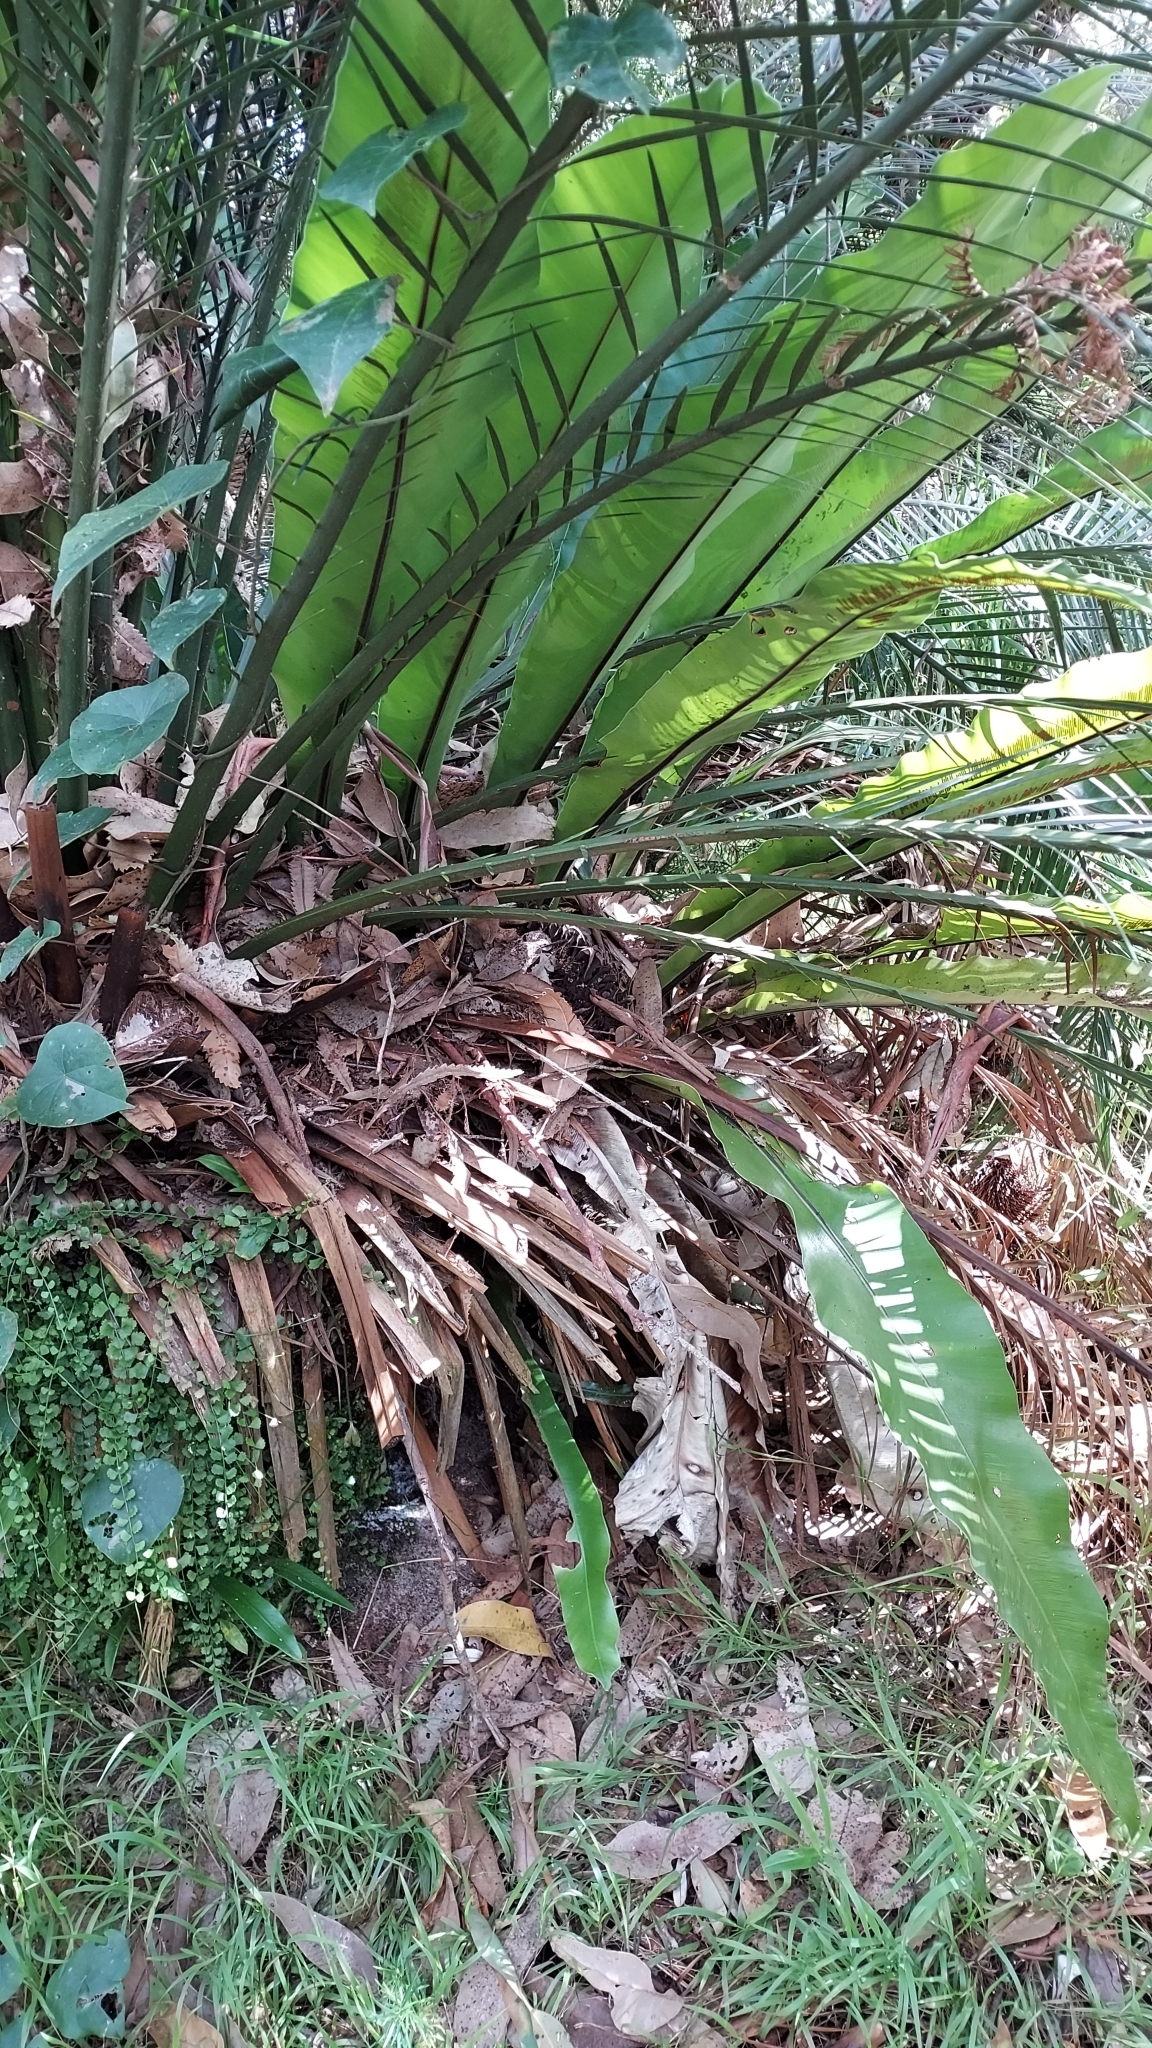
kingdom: Plantae
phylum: Tracheophyta
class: Polypodiopsida
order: Polypodiales
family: Aspleniaceae
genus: Asplenium
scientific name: Asplenium australasicum
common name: Bird's-nest fern
